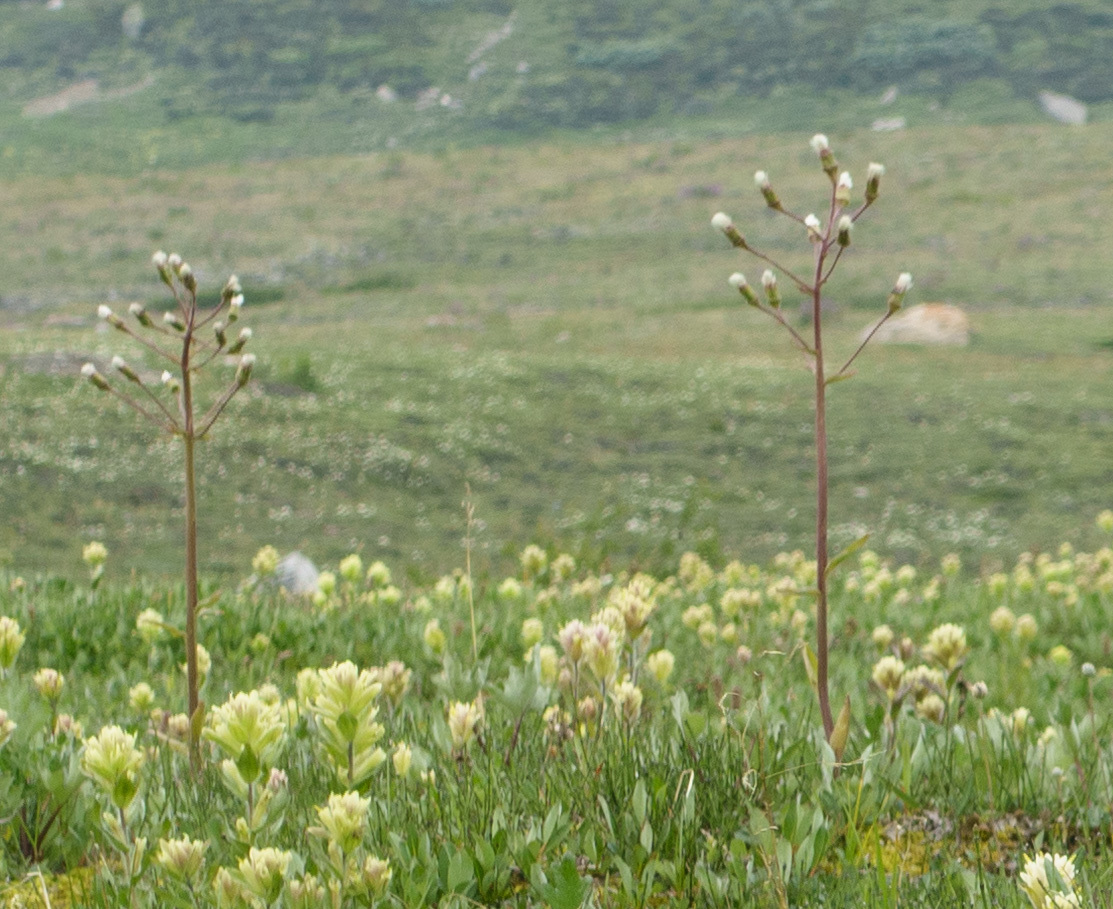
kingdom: Plantae
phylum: Tracheophyta
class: Magnoliopsida
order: Asterales
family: Asteraceae
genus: Petasites
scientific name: Petasites frigidus
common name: Arctic butterbur
